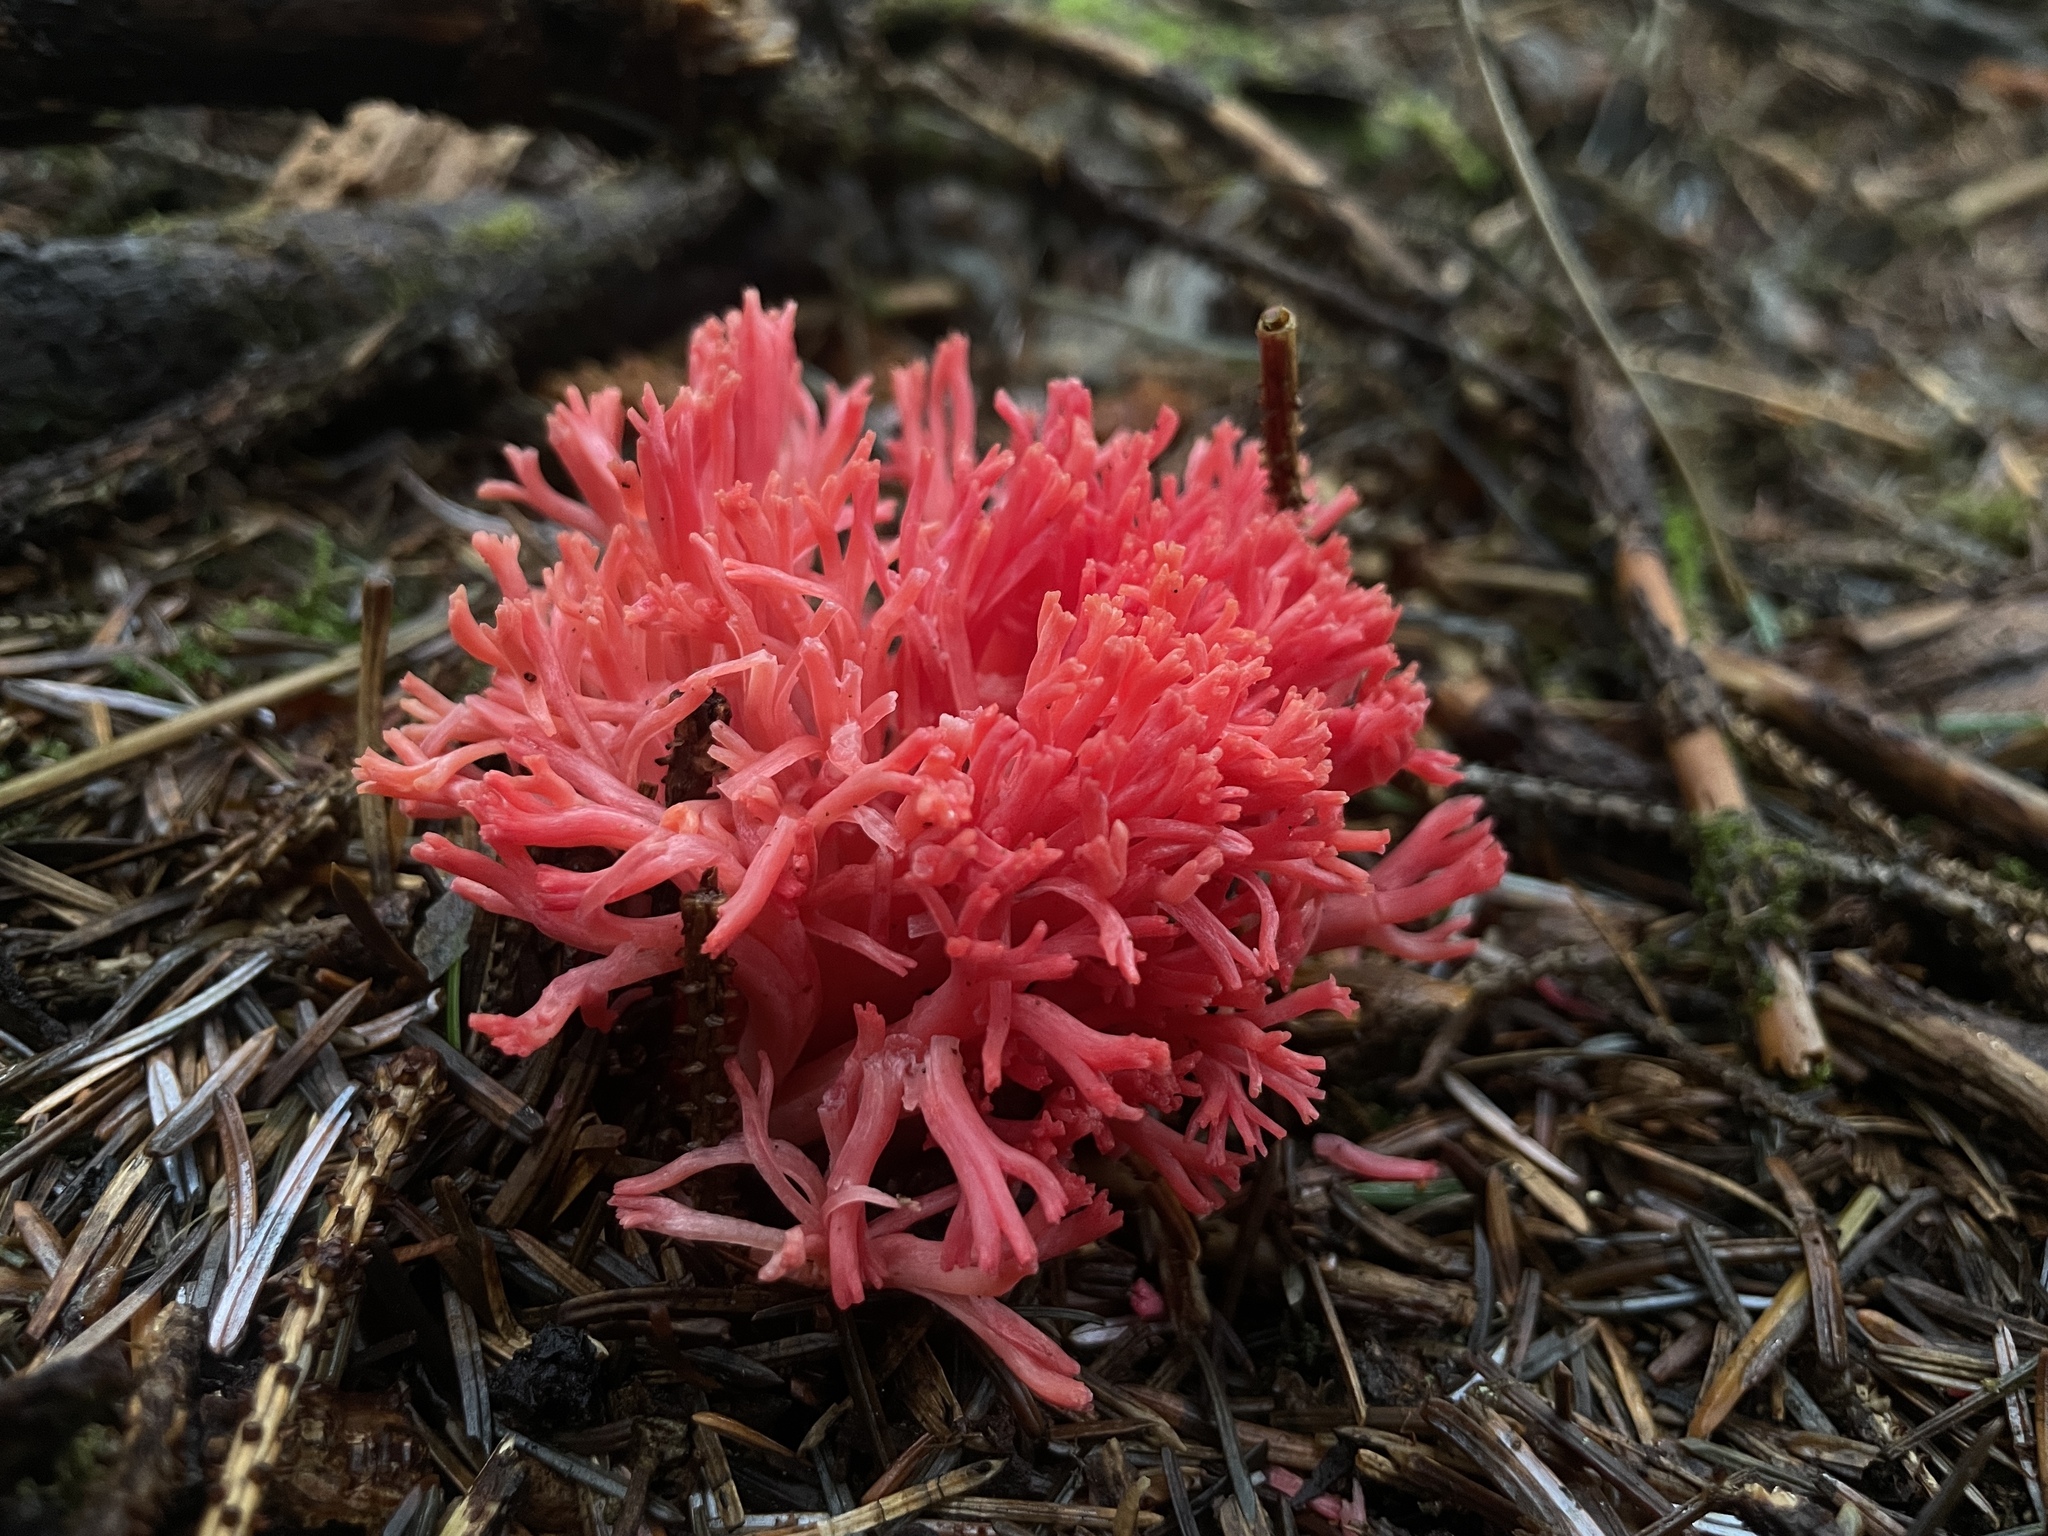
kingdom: Fungi
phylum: Basidiomycota
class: Agaricomycetes
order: Gomphales
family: Gomphaceae
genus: Ramaria
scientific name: Ramaria araiospora
